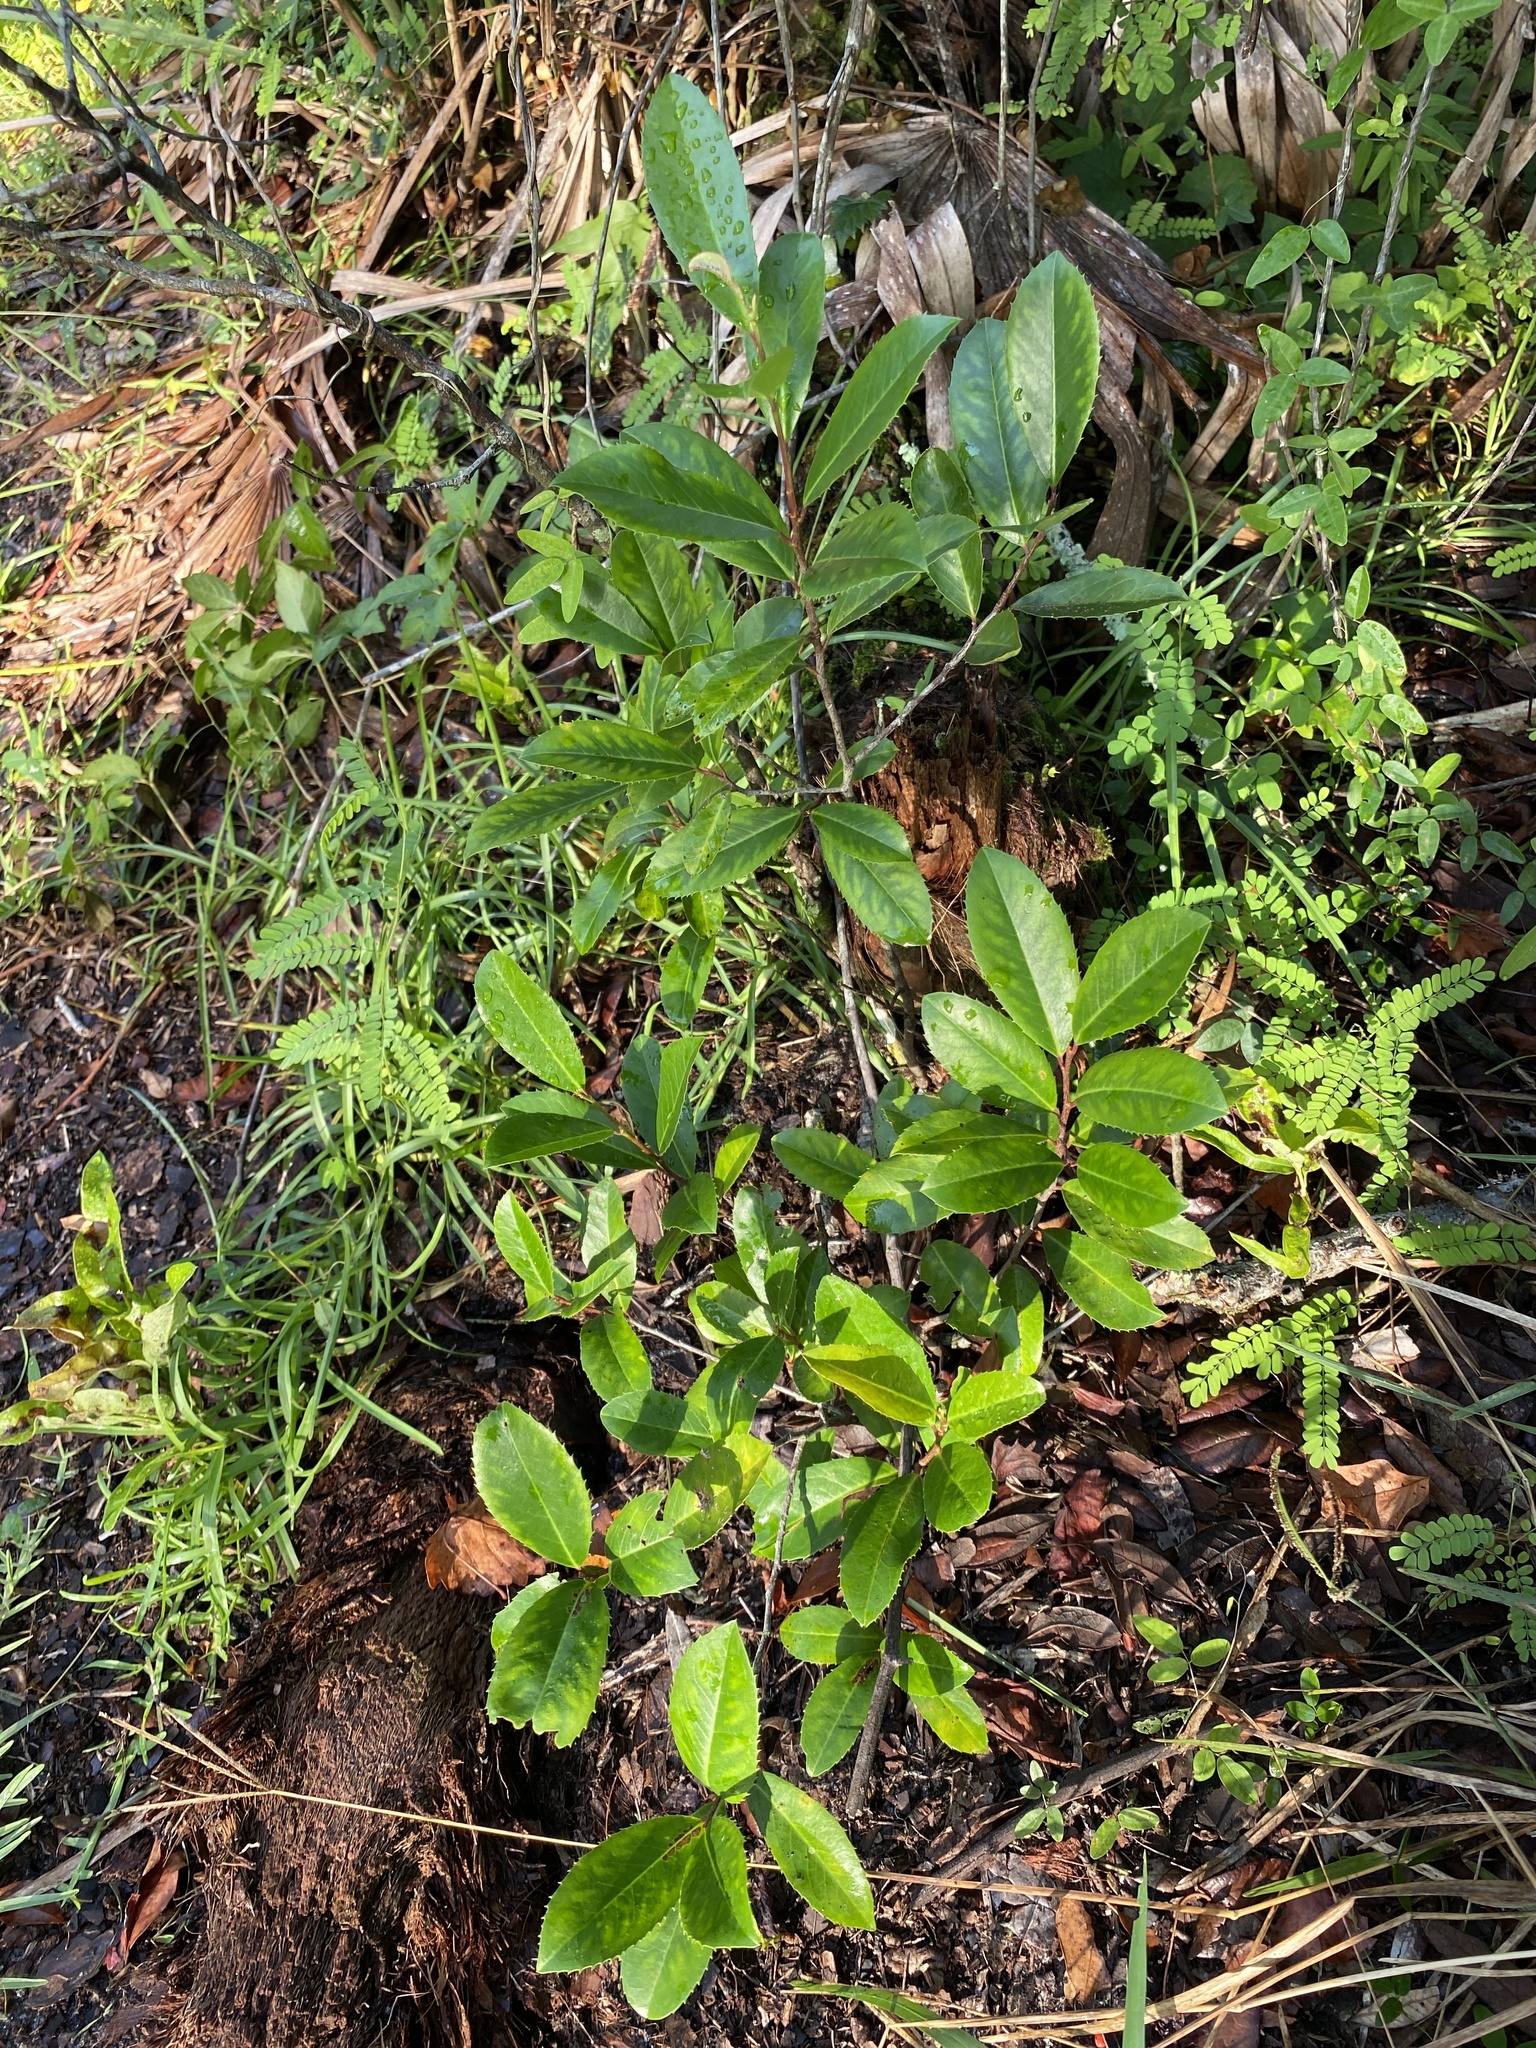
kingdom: Plantae
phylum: Tracheophyta
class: Magnoliopsida
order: Rosales
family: Rosaceae
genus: Prunus
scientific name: Prunus caroliniana
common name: Carolina laurel cherry
